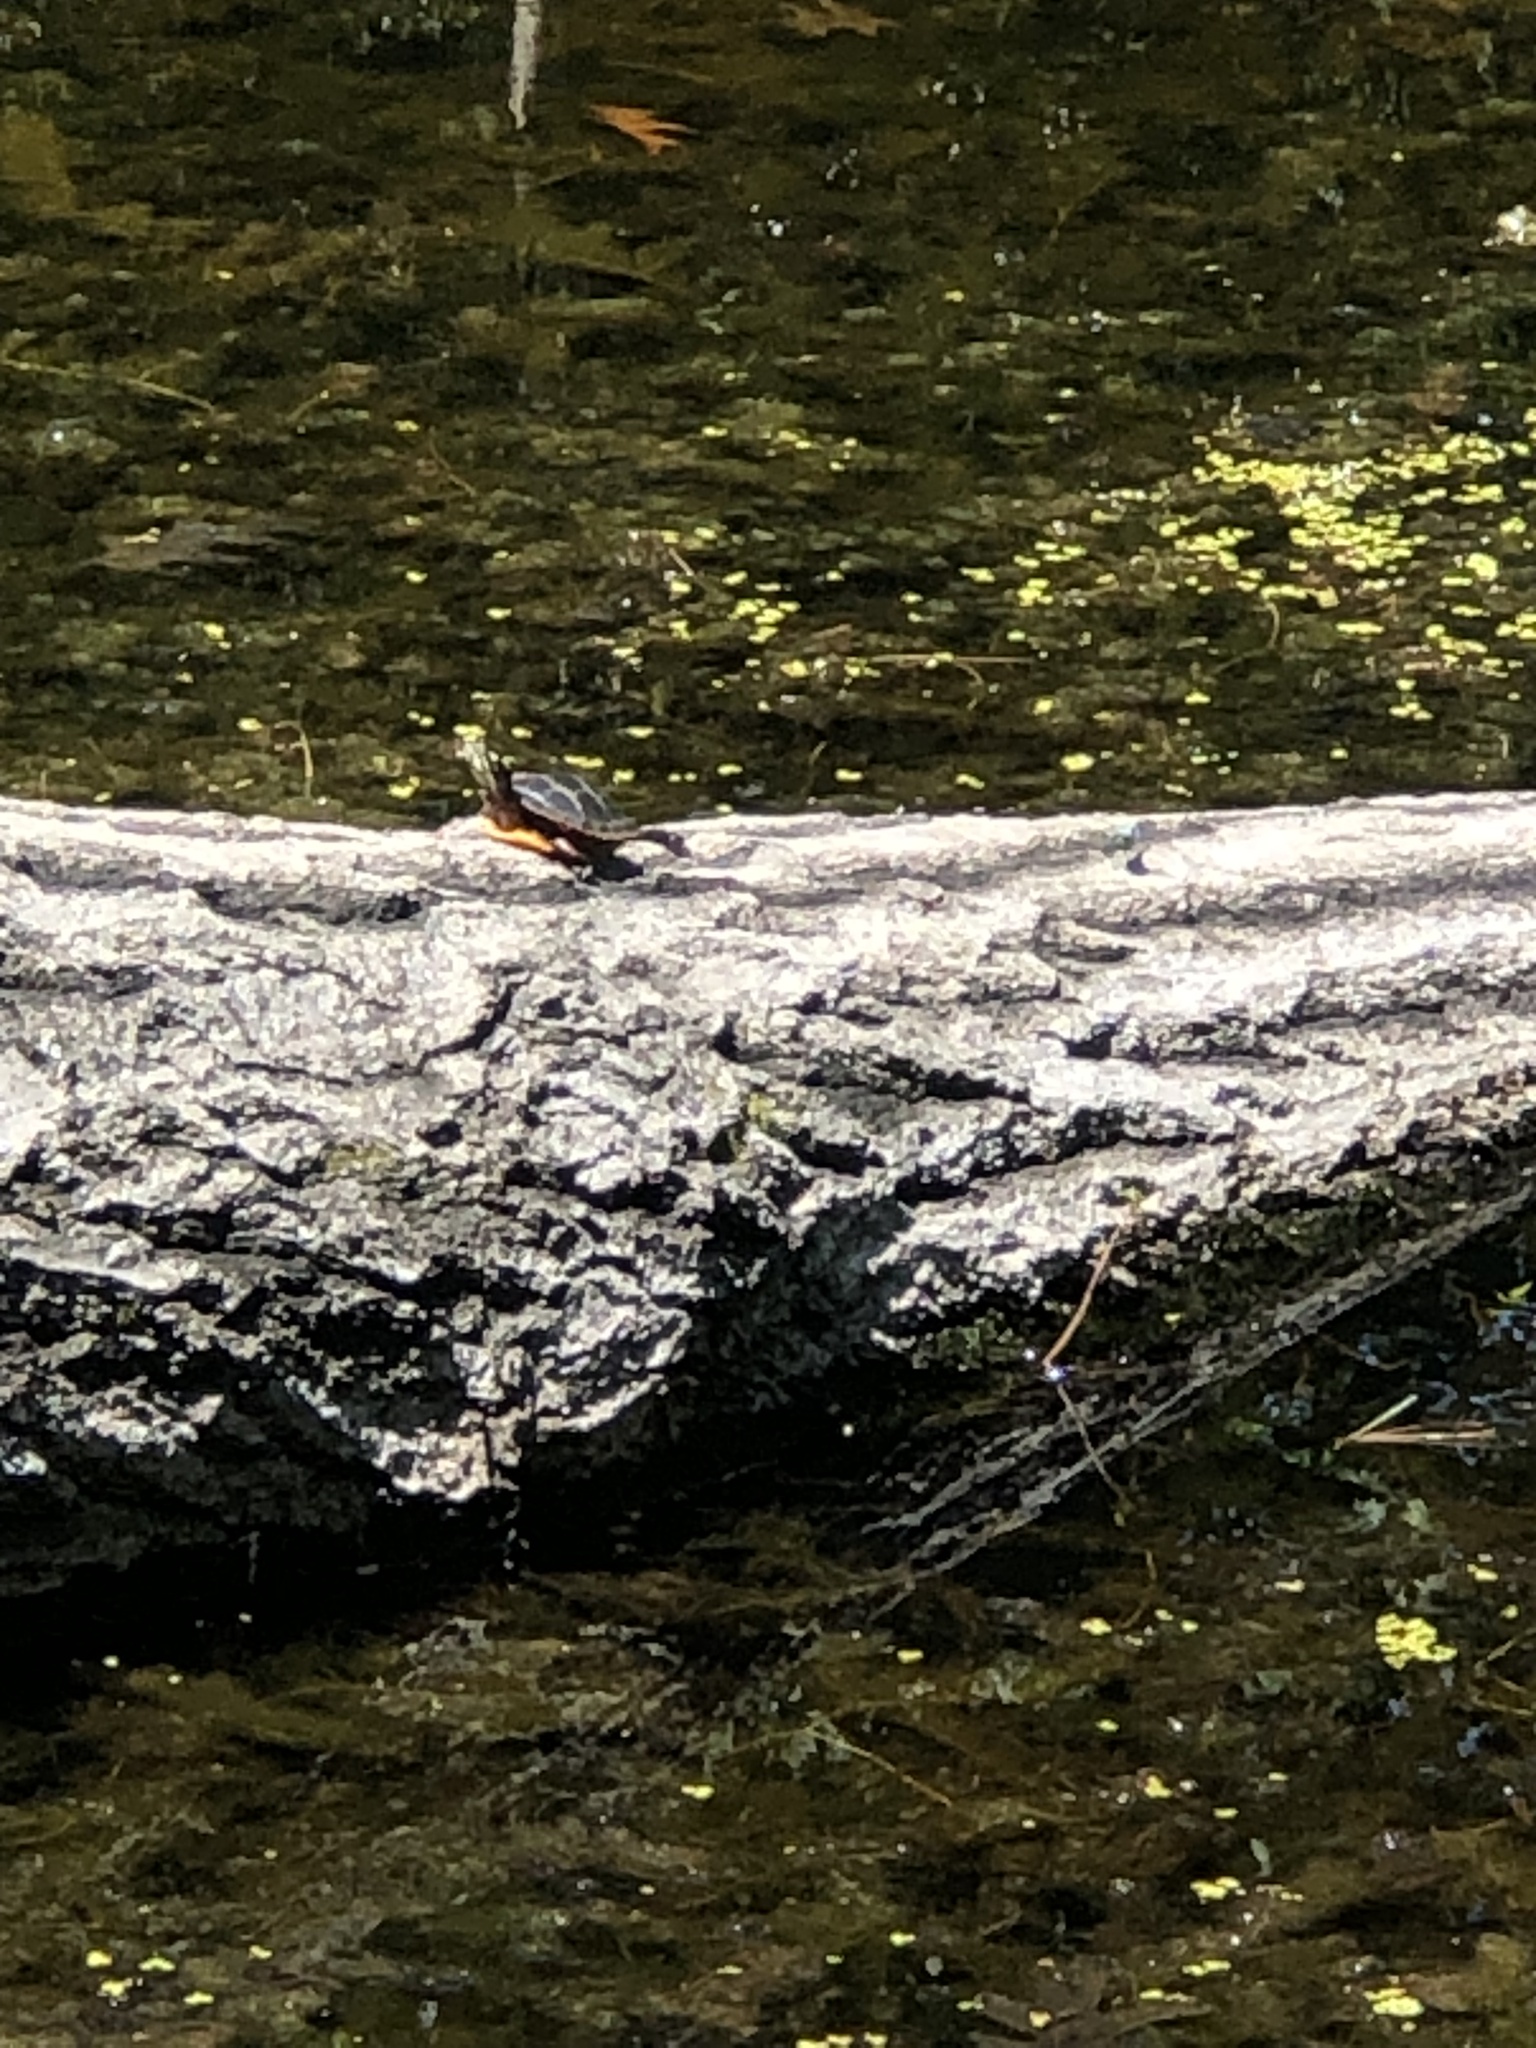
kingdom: Animalia
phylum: Chordata
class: Testudines
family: Emydidae
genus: Chrysemys
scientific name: Chrysemys picta
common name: Painted turtle
